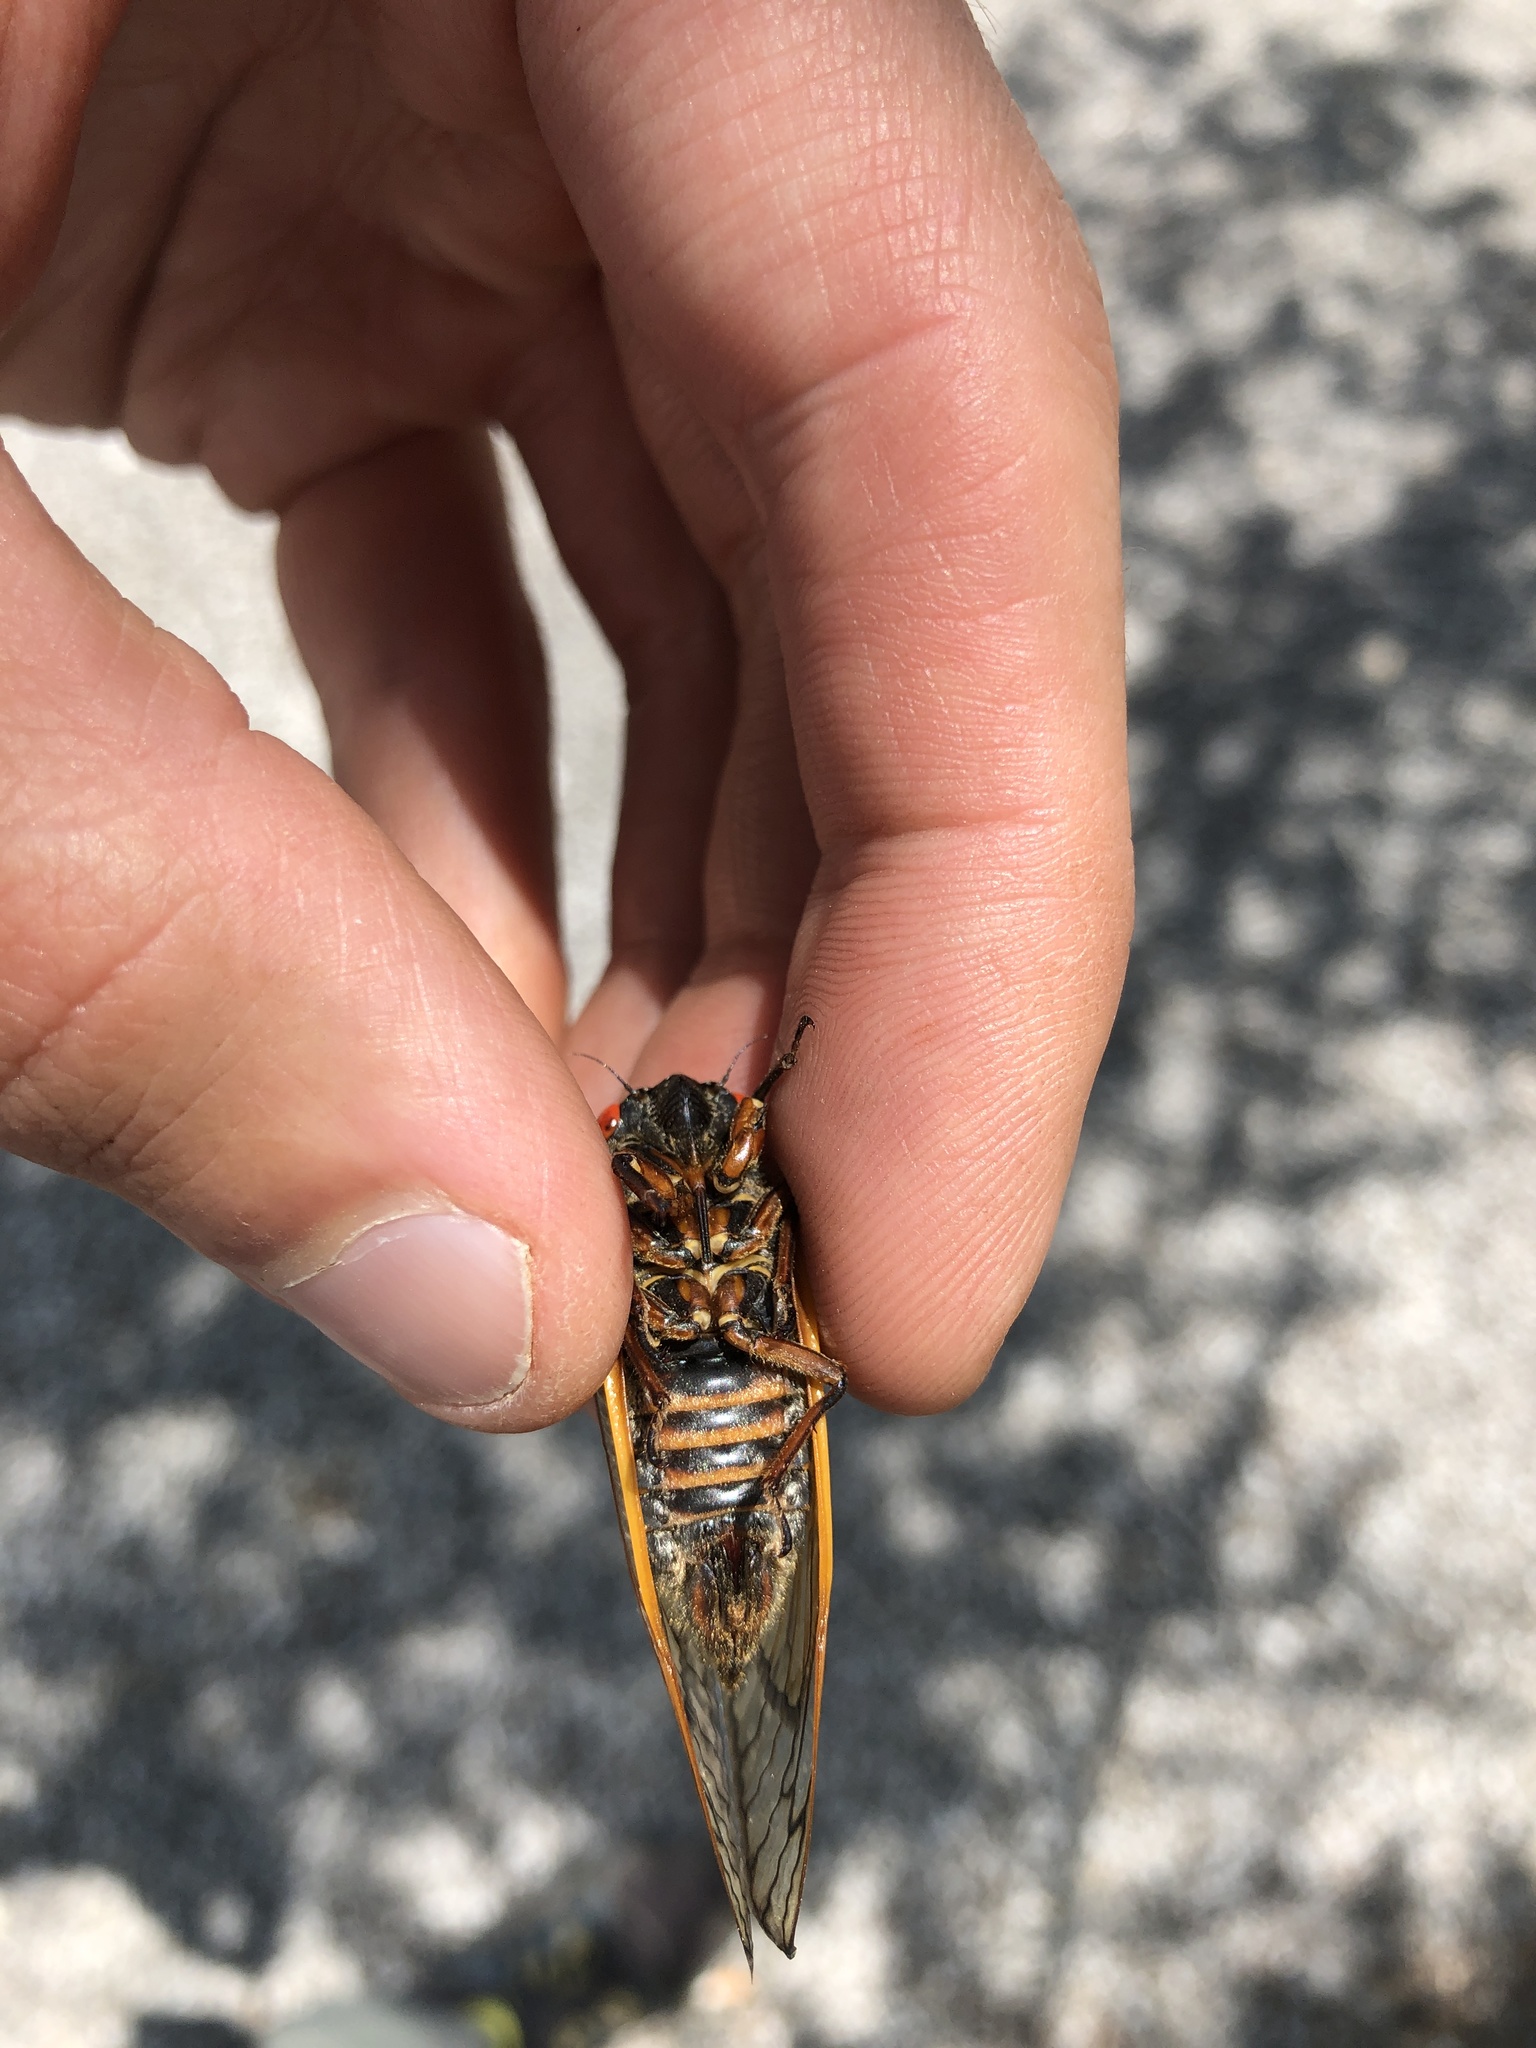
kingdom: Animalia
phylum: Arthropoda
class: Insecta
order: Hemiptera
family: Cicadidae
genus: Magicicada
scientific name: Magicicada septendecim
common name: Periodical cicada
